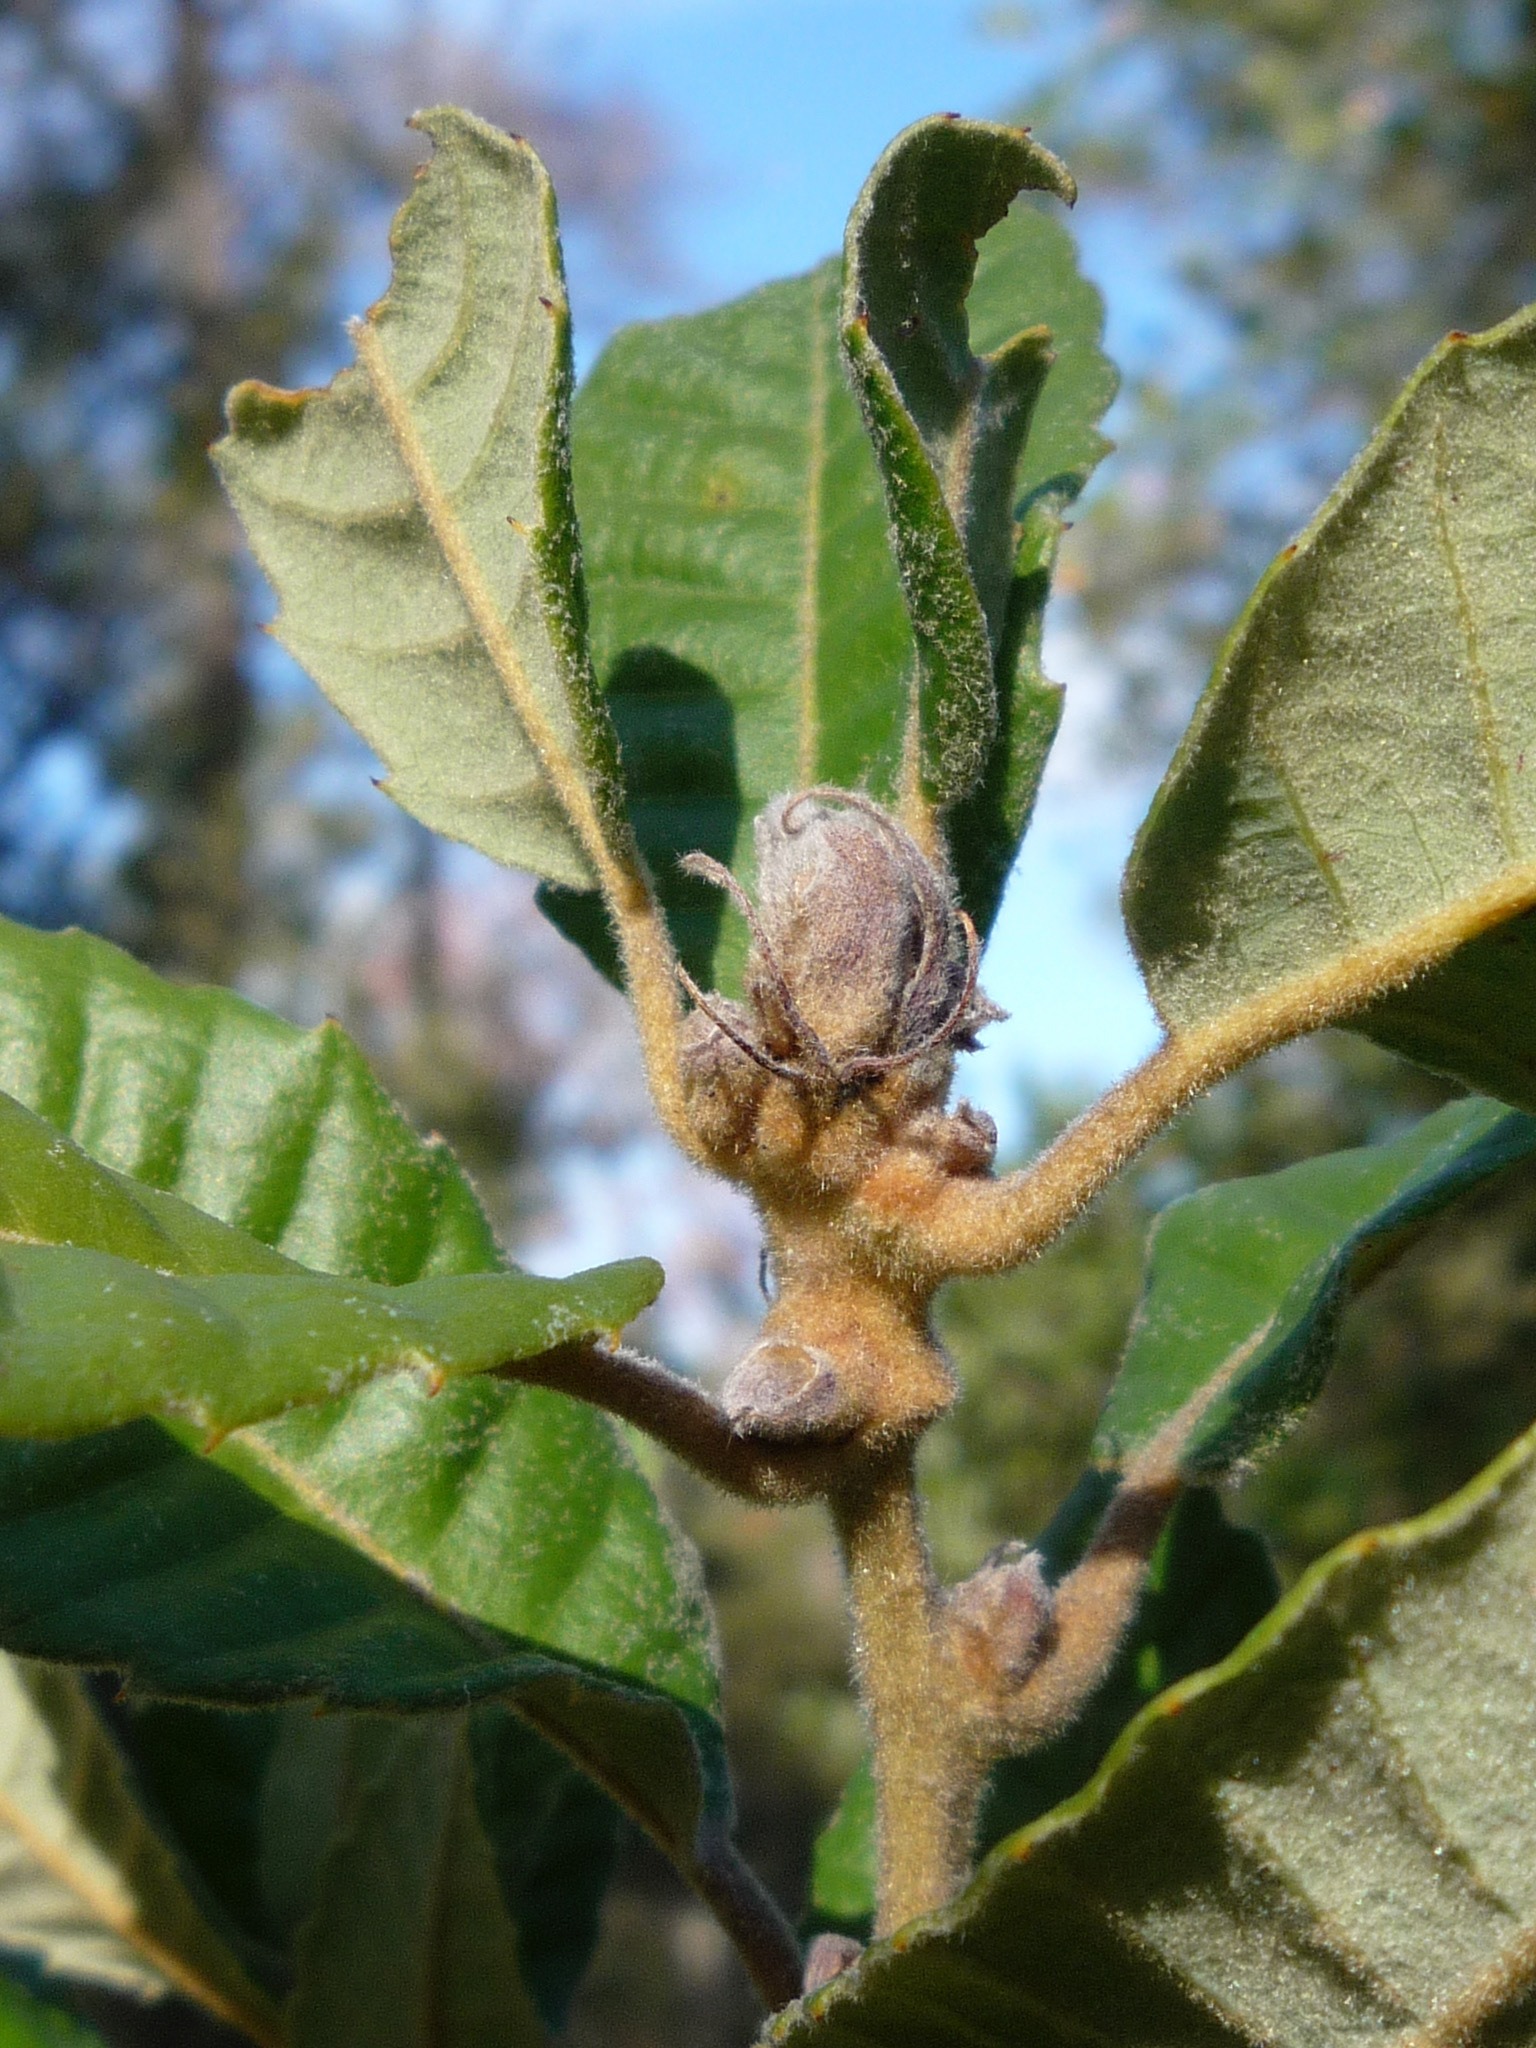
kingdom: Plantae
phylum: Tracheophyta
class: Magnoliopsida
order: Fagales
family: Fagaceae
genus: Notholithocarpus
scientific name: Notholithocarpus densiflorus
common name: Tan bark oak
